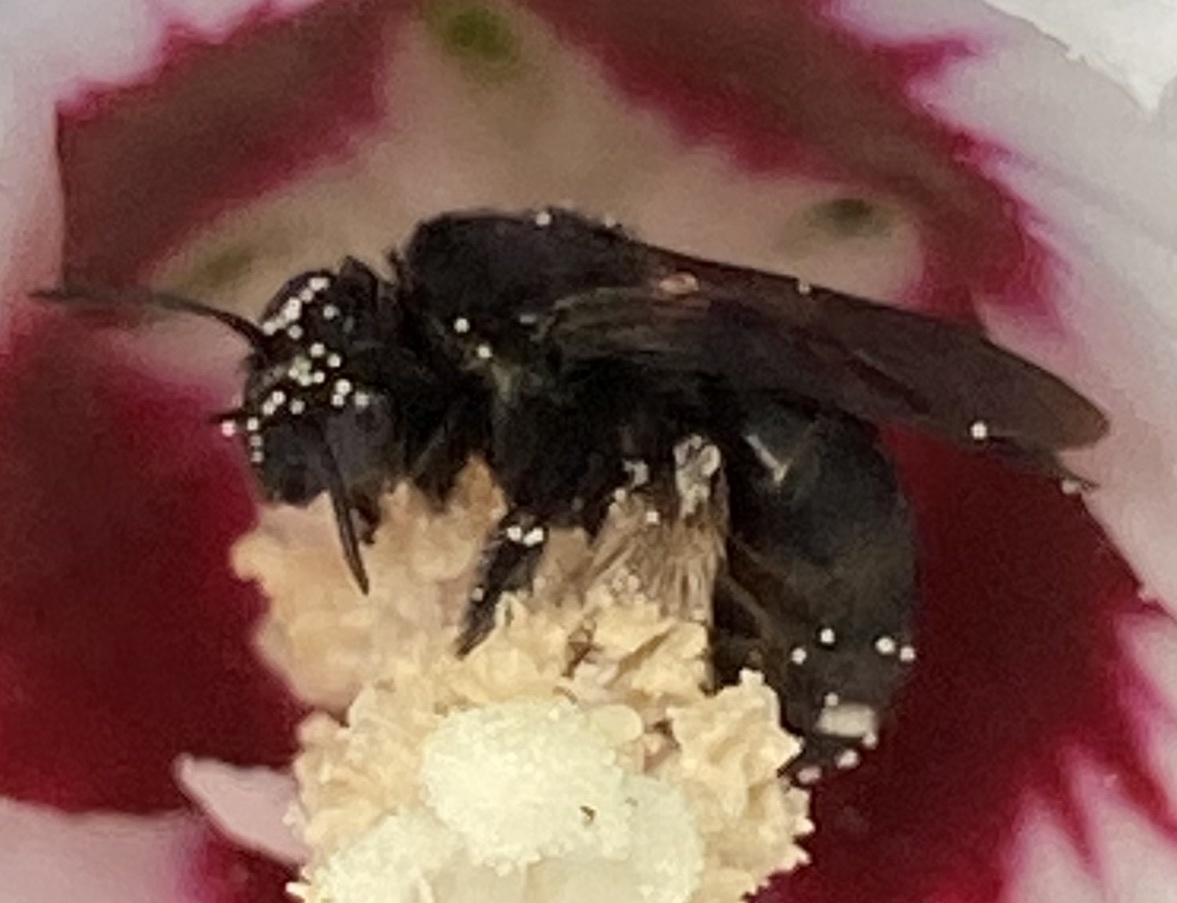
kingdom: Animalia
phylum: Arthropoda
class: Insecta
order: Hymenoptera
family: Apidae
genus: Melissodes
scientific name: Melissodes bimaculatus
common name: Two-spotted long-horned bee
